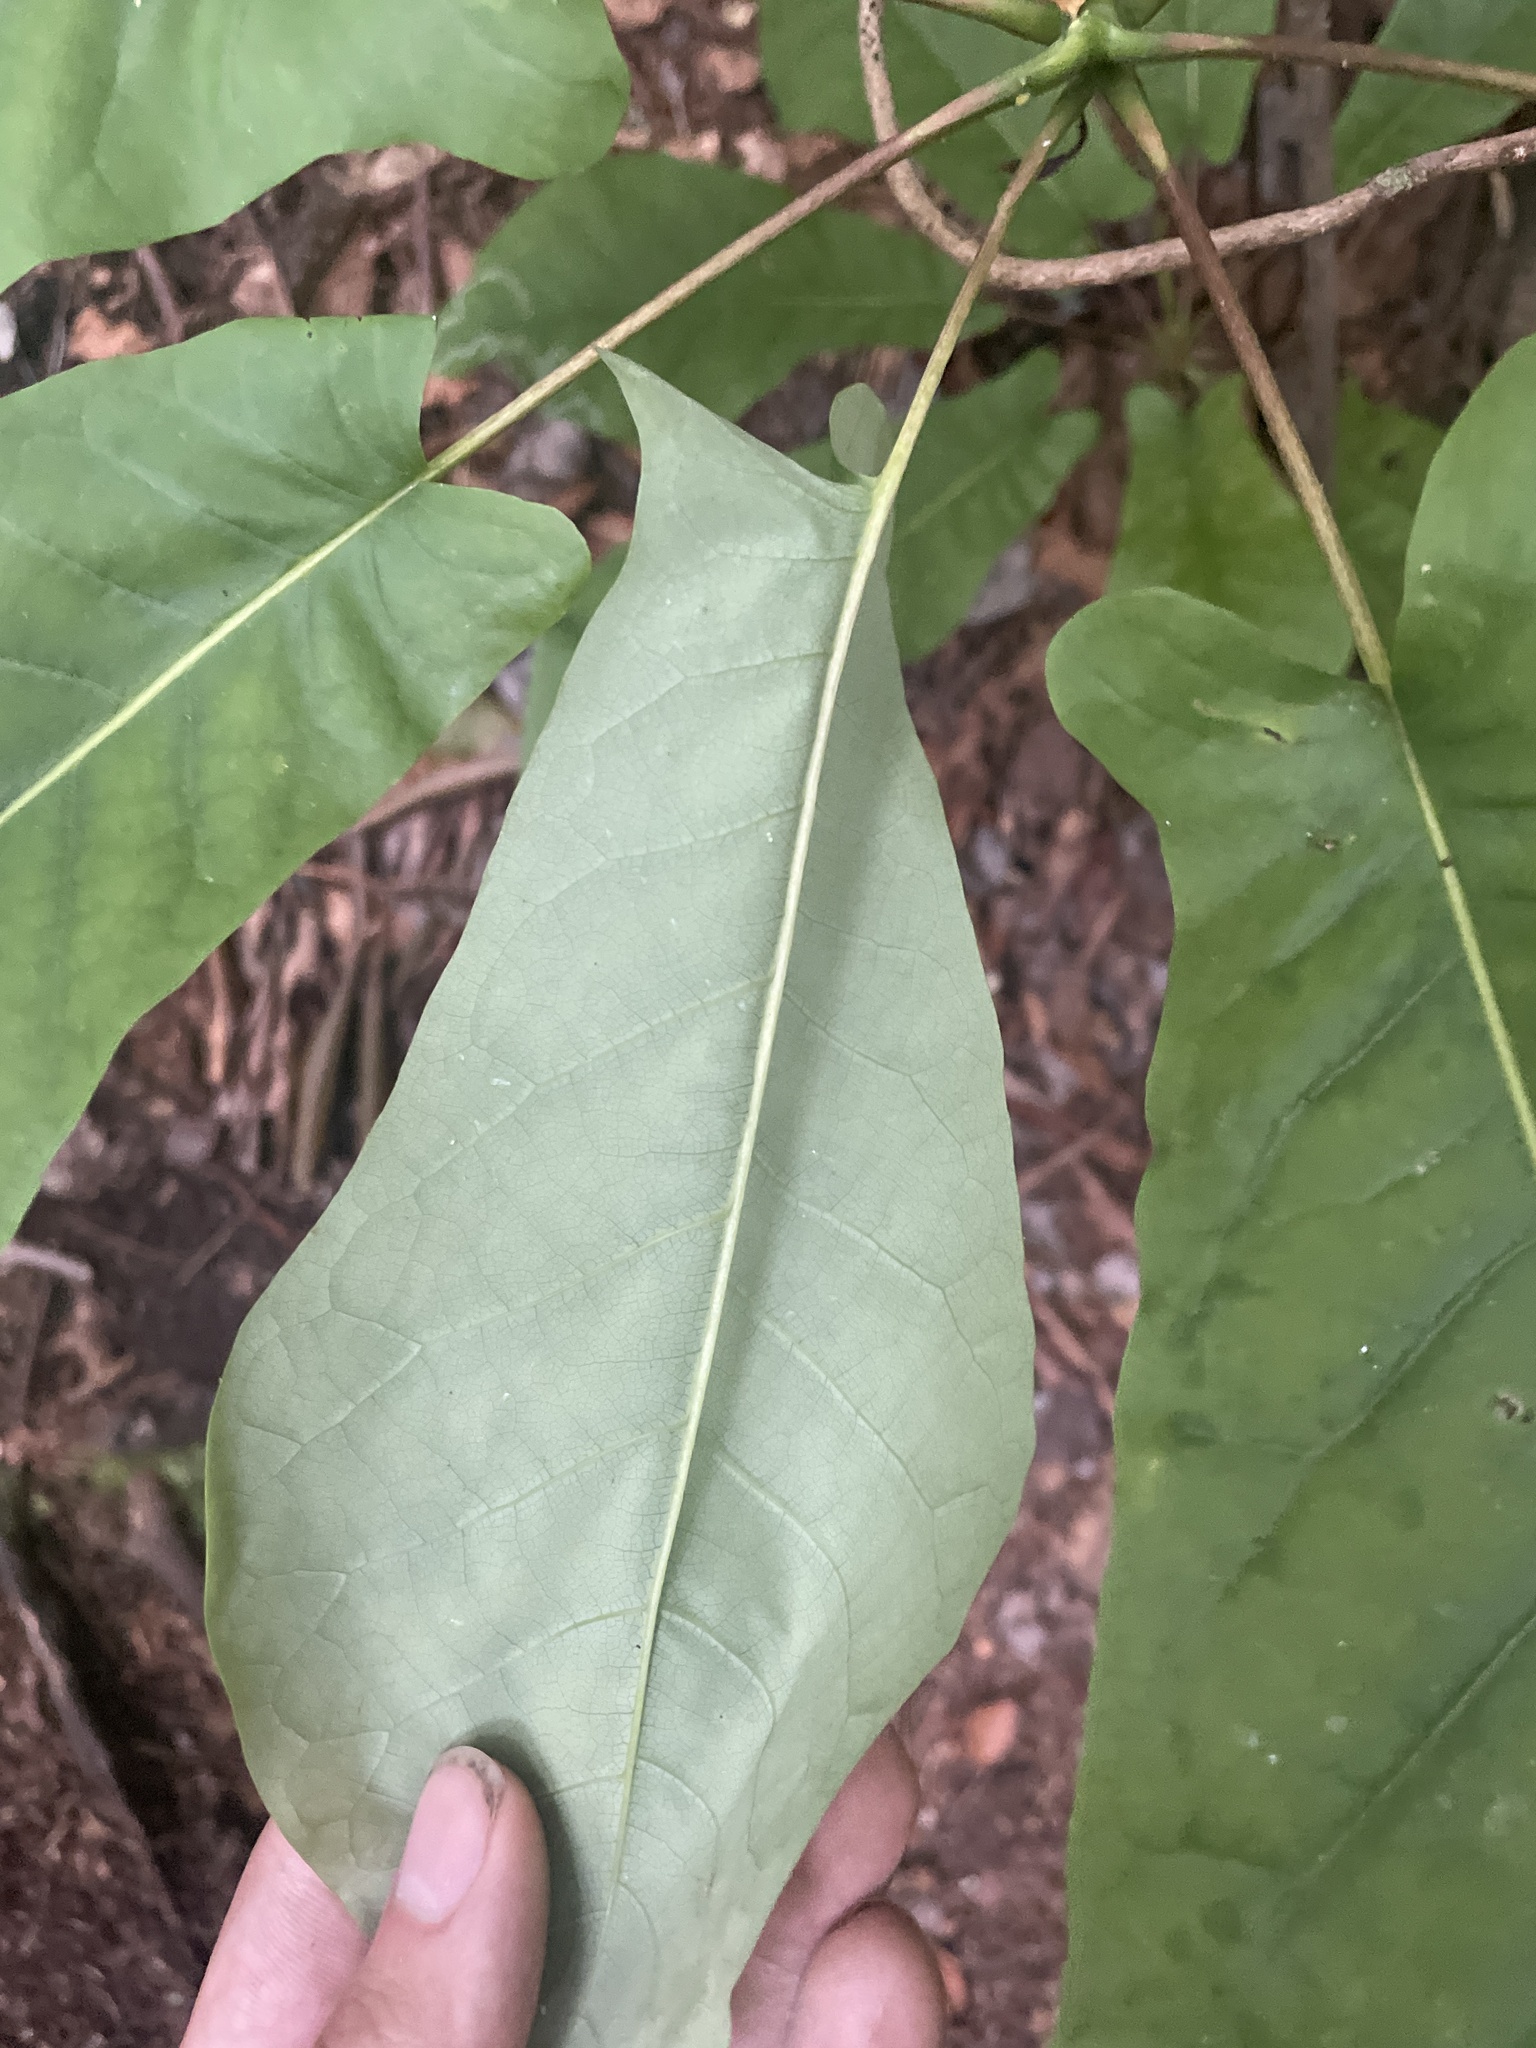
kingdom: Plantae
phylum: Tracheophyta
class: Magnoliopsida
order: Magnoliales
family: Magnoliaceae
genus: Magnolia
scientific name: Magnolia fraseri
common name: Fraser's magnolia
